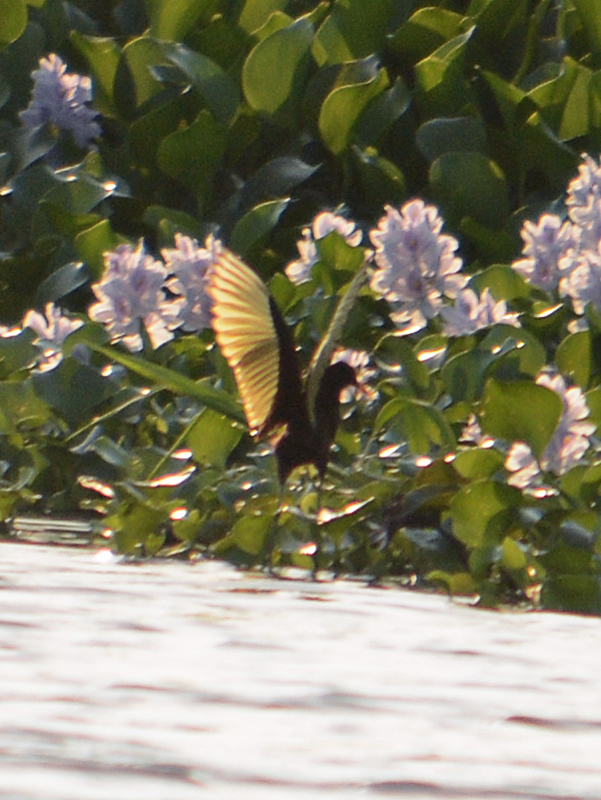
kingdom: Animalia
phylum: Chordata
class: Aves
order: Charadriiformes
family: Jacanidae
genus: Jacana
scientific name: Jacana spinosa
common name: Northern jacana
